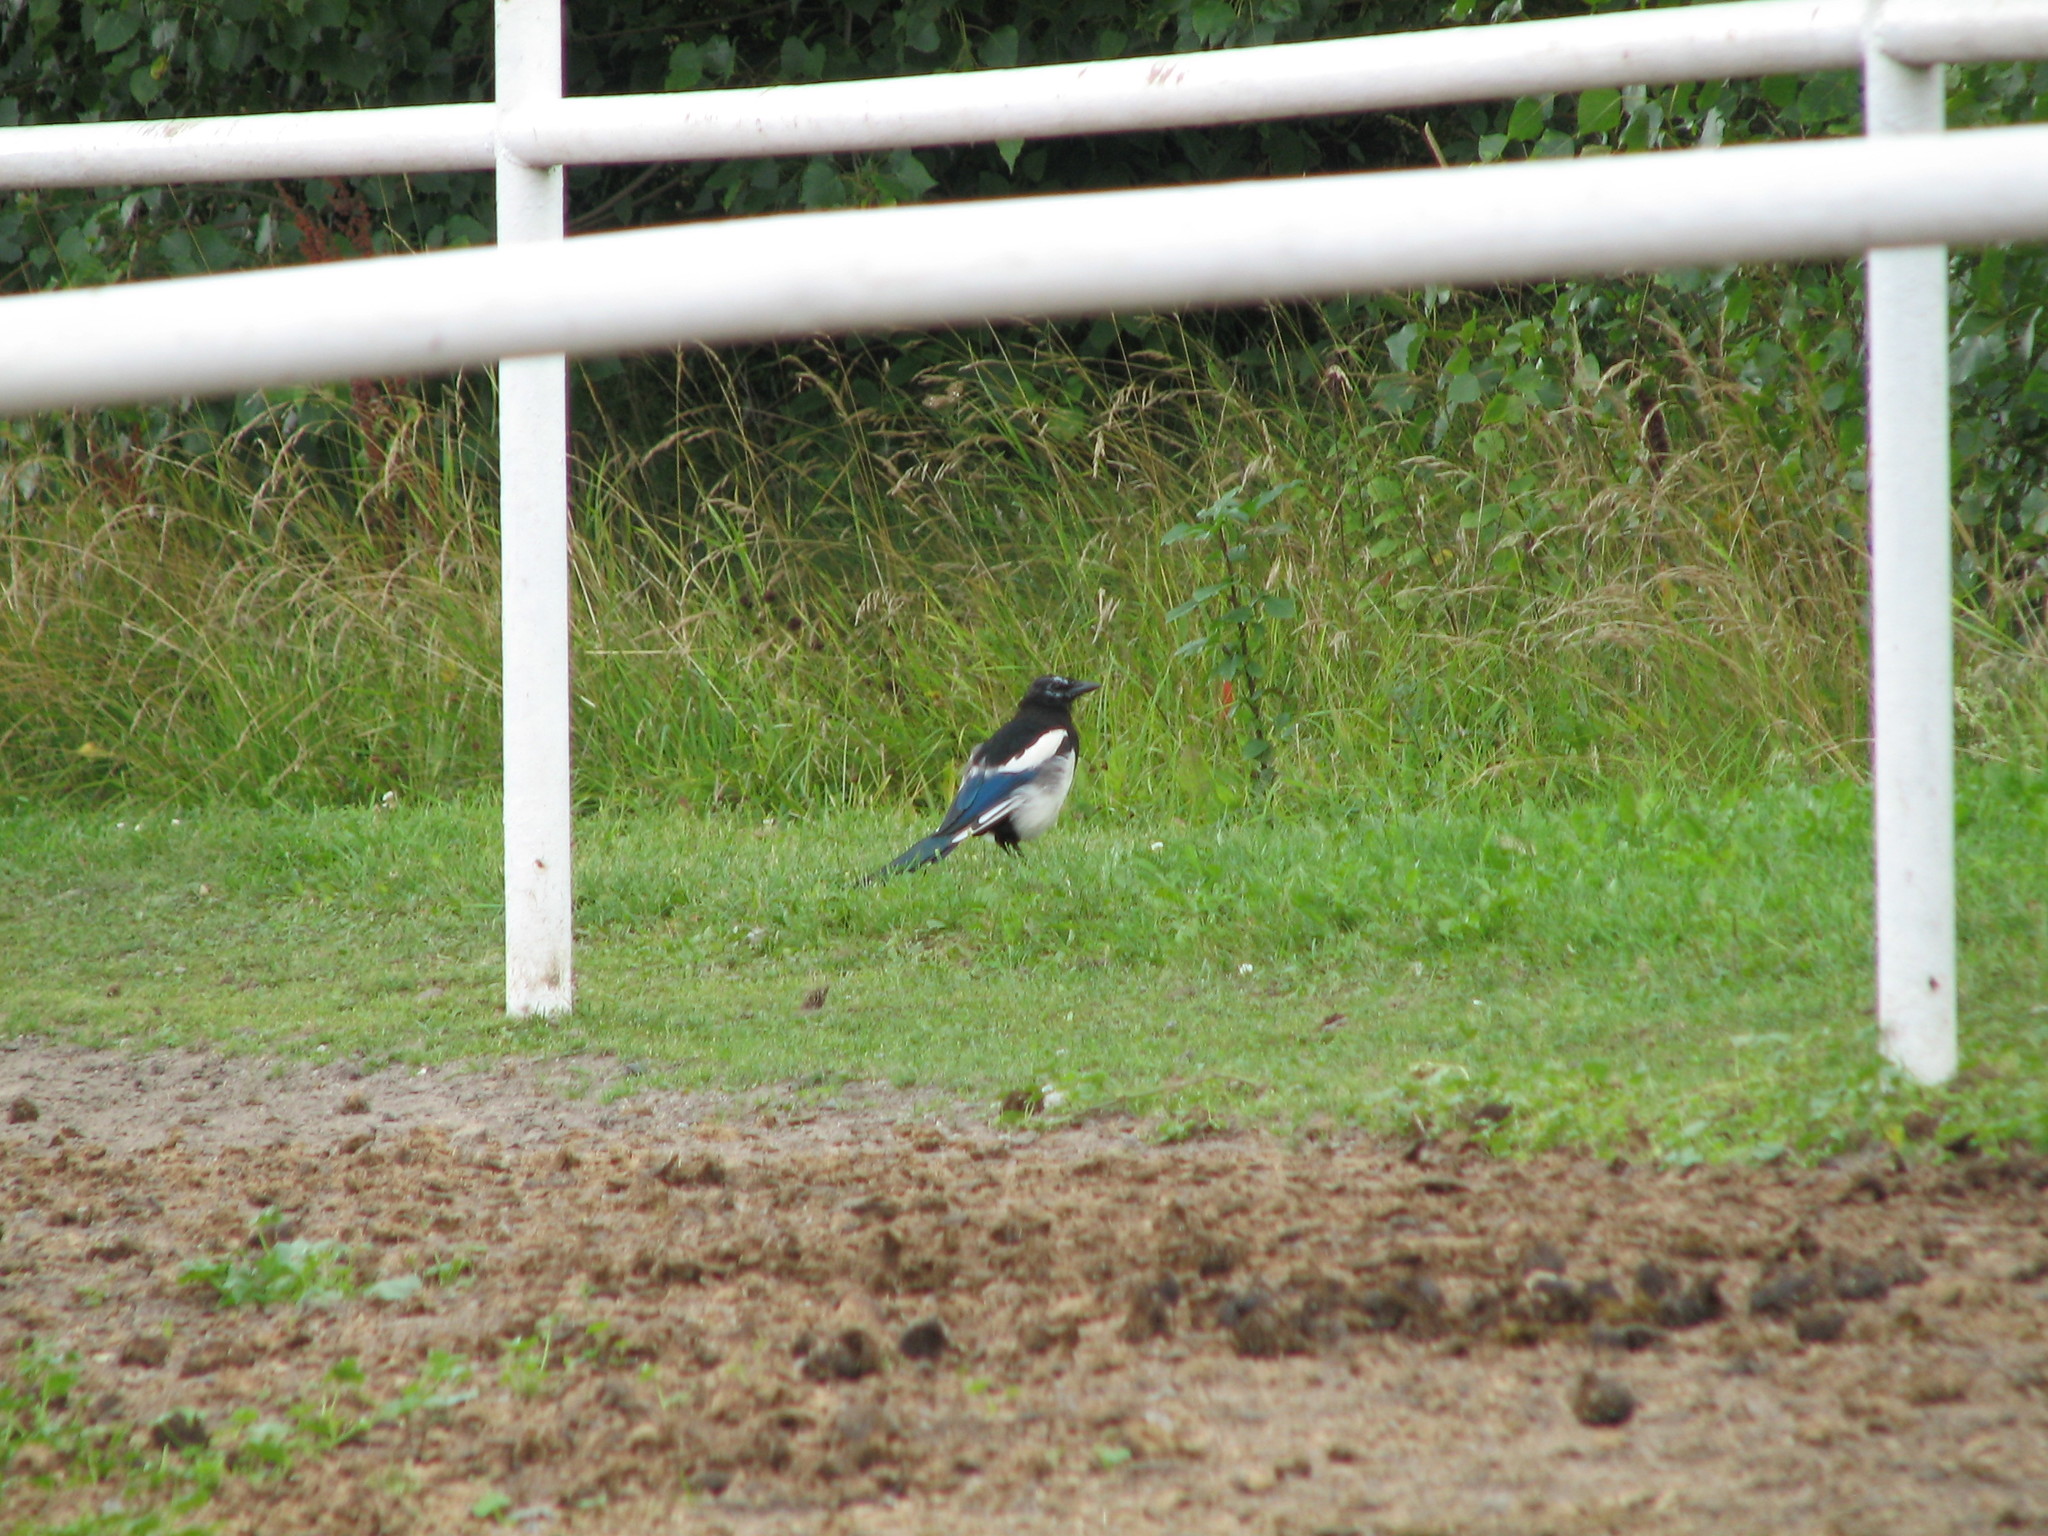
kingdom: Animalia
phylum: Chordata
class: Aves
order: Passeriformes
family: Corvidae
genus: Pica
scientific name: Pica pica
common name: Eurasian magpie
